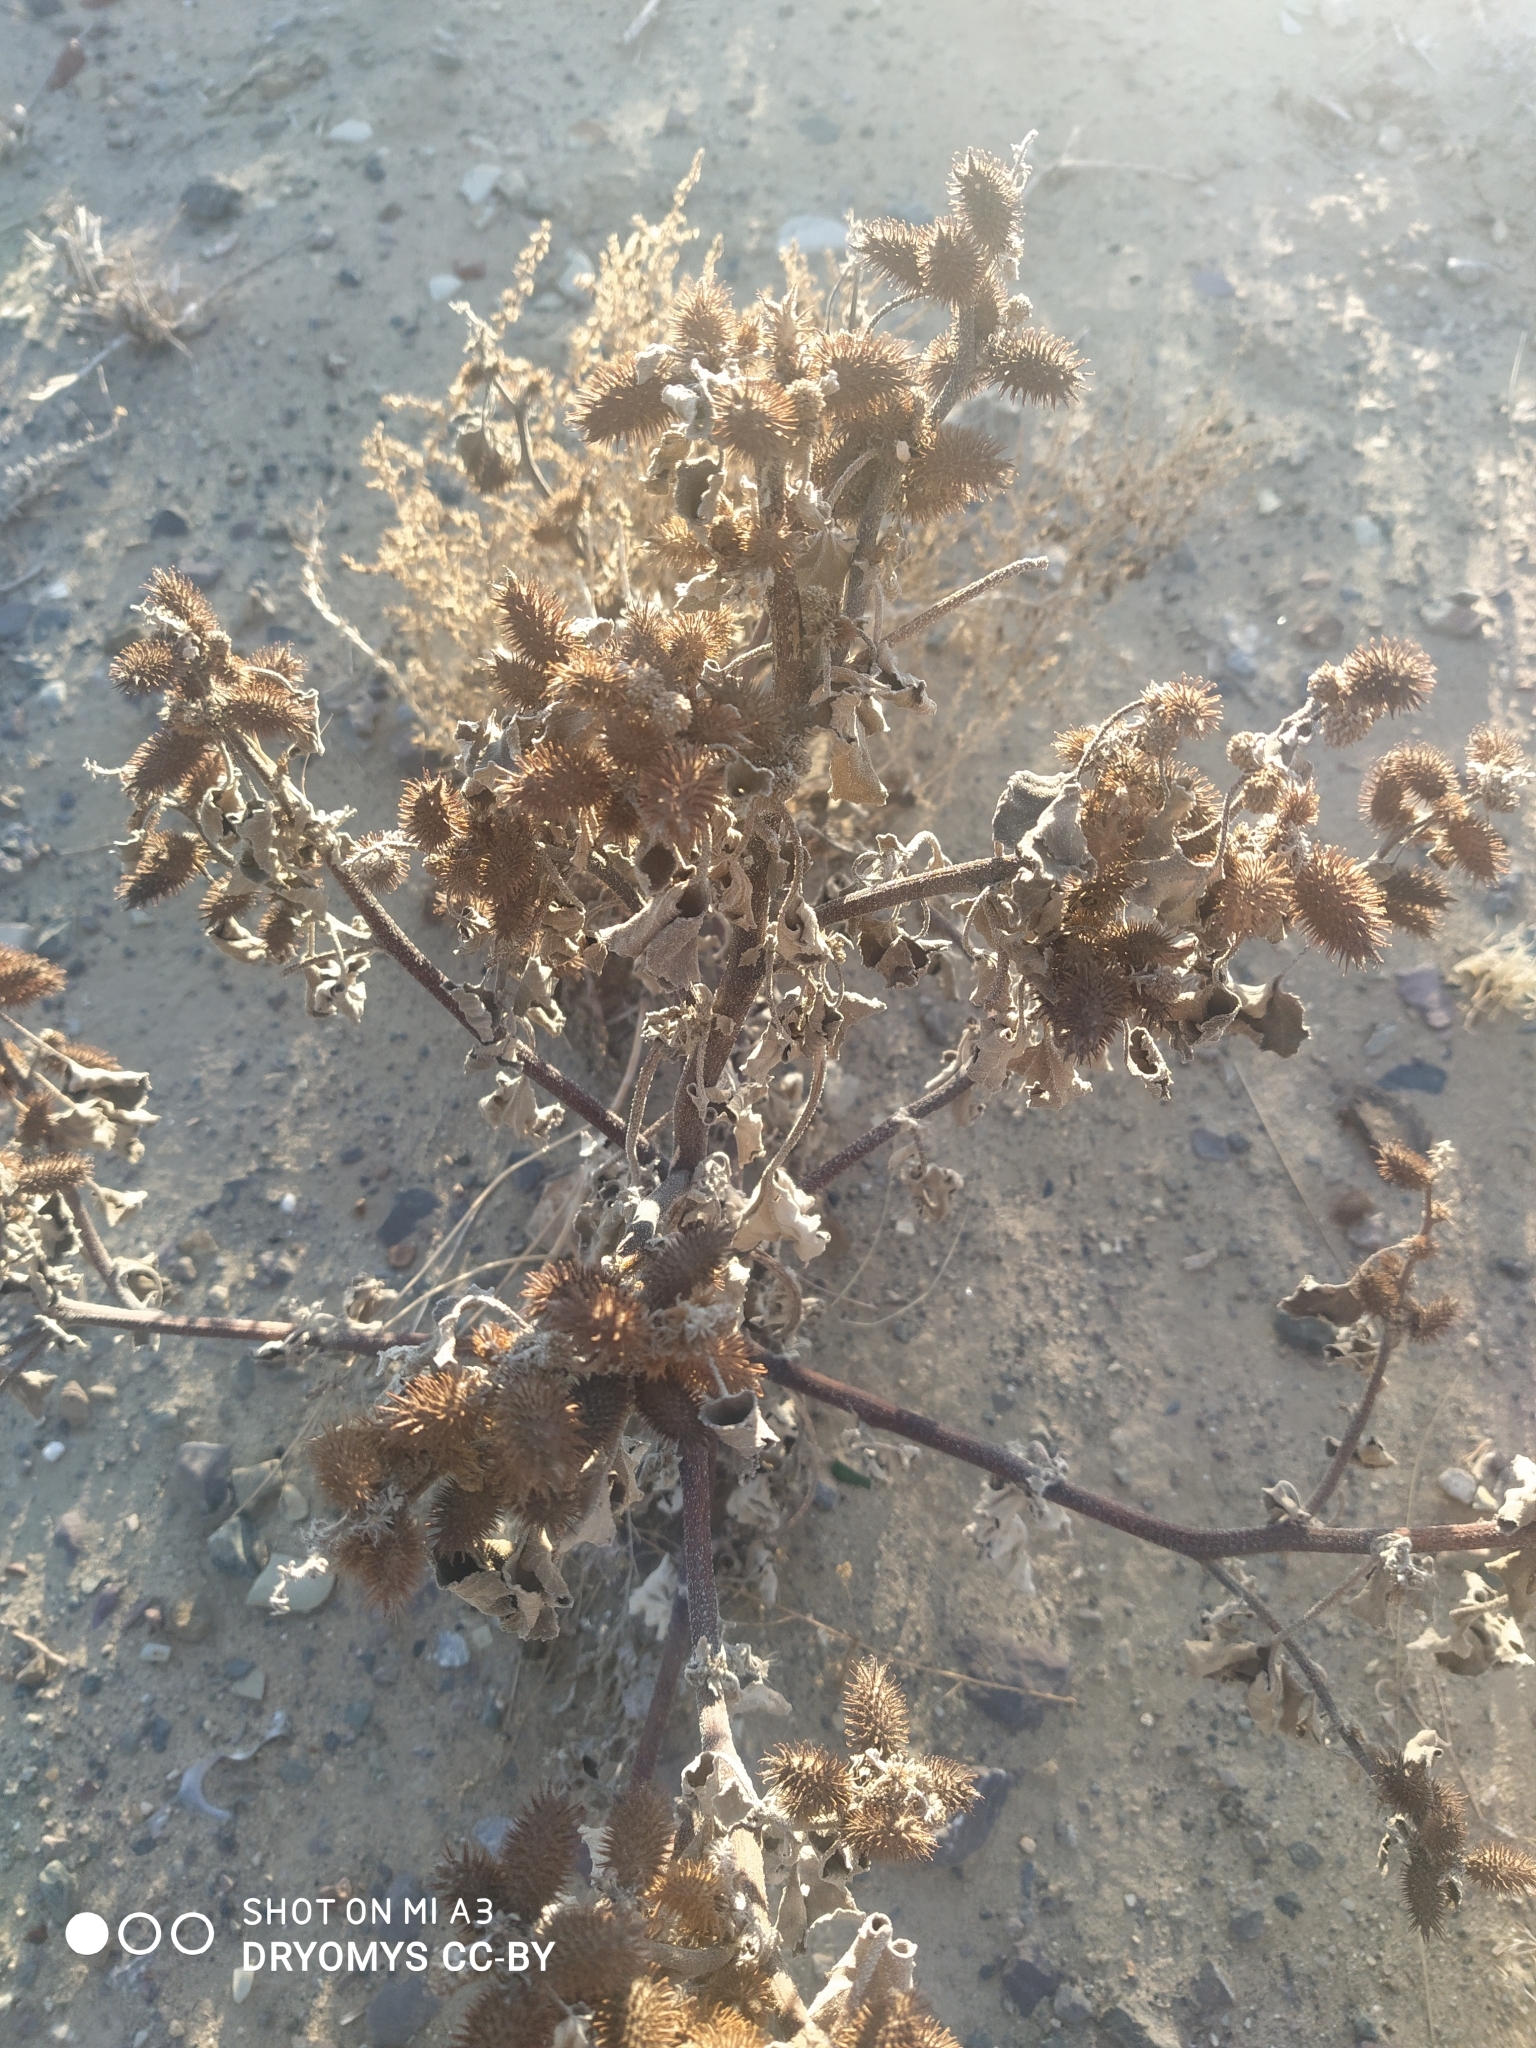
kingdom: Plantae
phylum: Tracheophyta
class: Magnoliopsida
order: Asterales
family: Asteraceae
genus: Xanthium
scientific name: Xanthium orientale
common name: Californian burr
